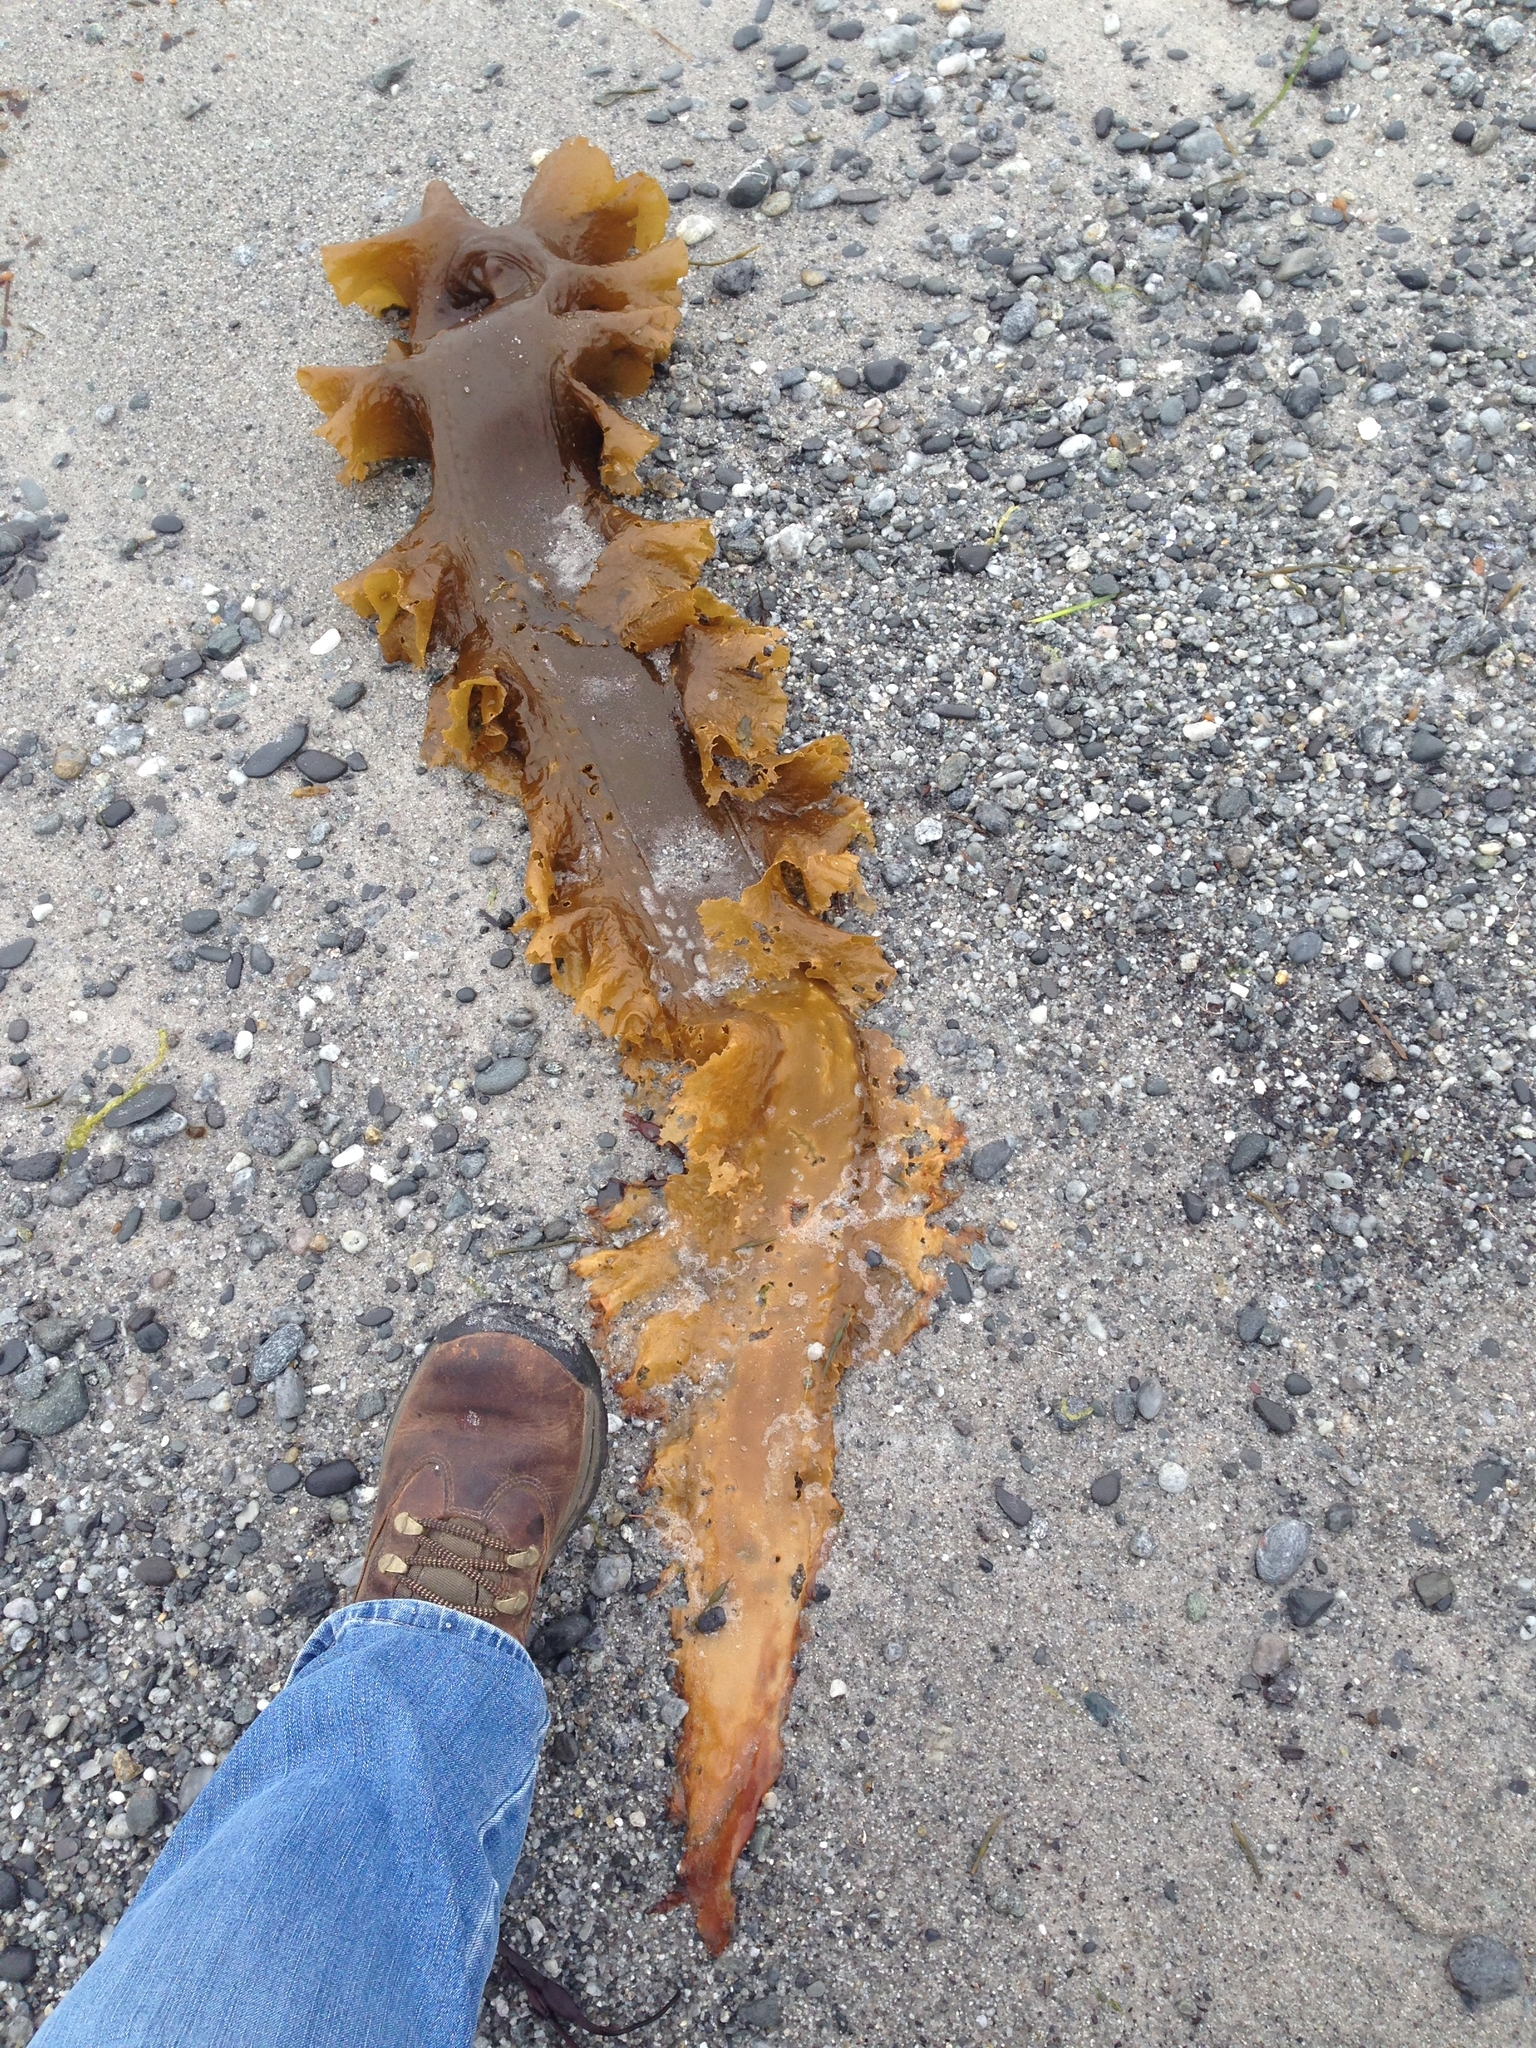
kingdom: Chromista
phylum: Ochrophyta
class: Phaeophyceae
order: Laminariales
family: Laminariaceae
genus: Saccharina
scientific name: Saccharina latissima
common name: Poor man's weather glass
